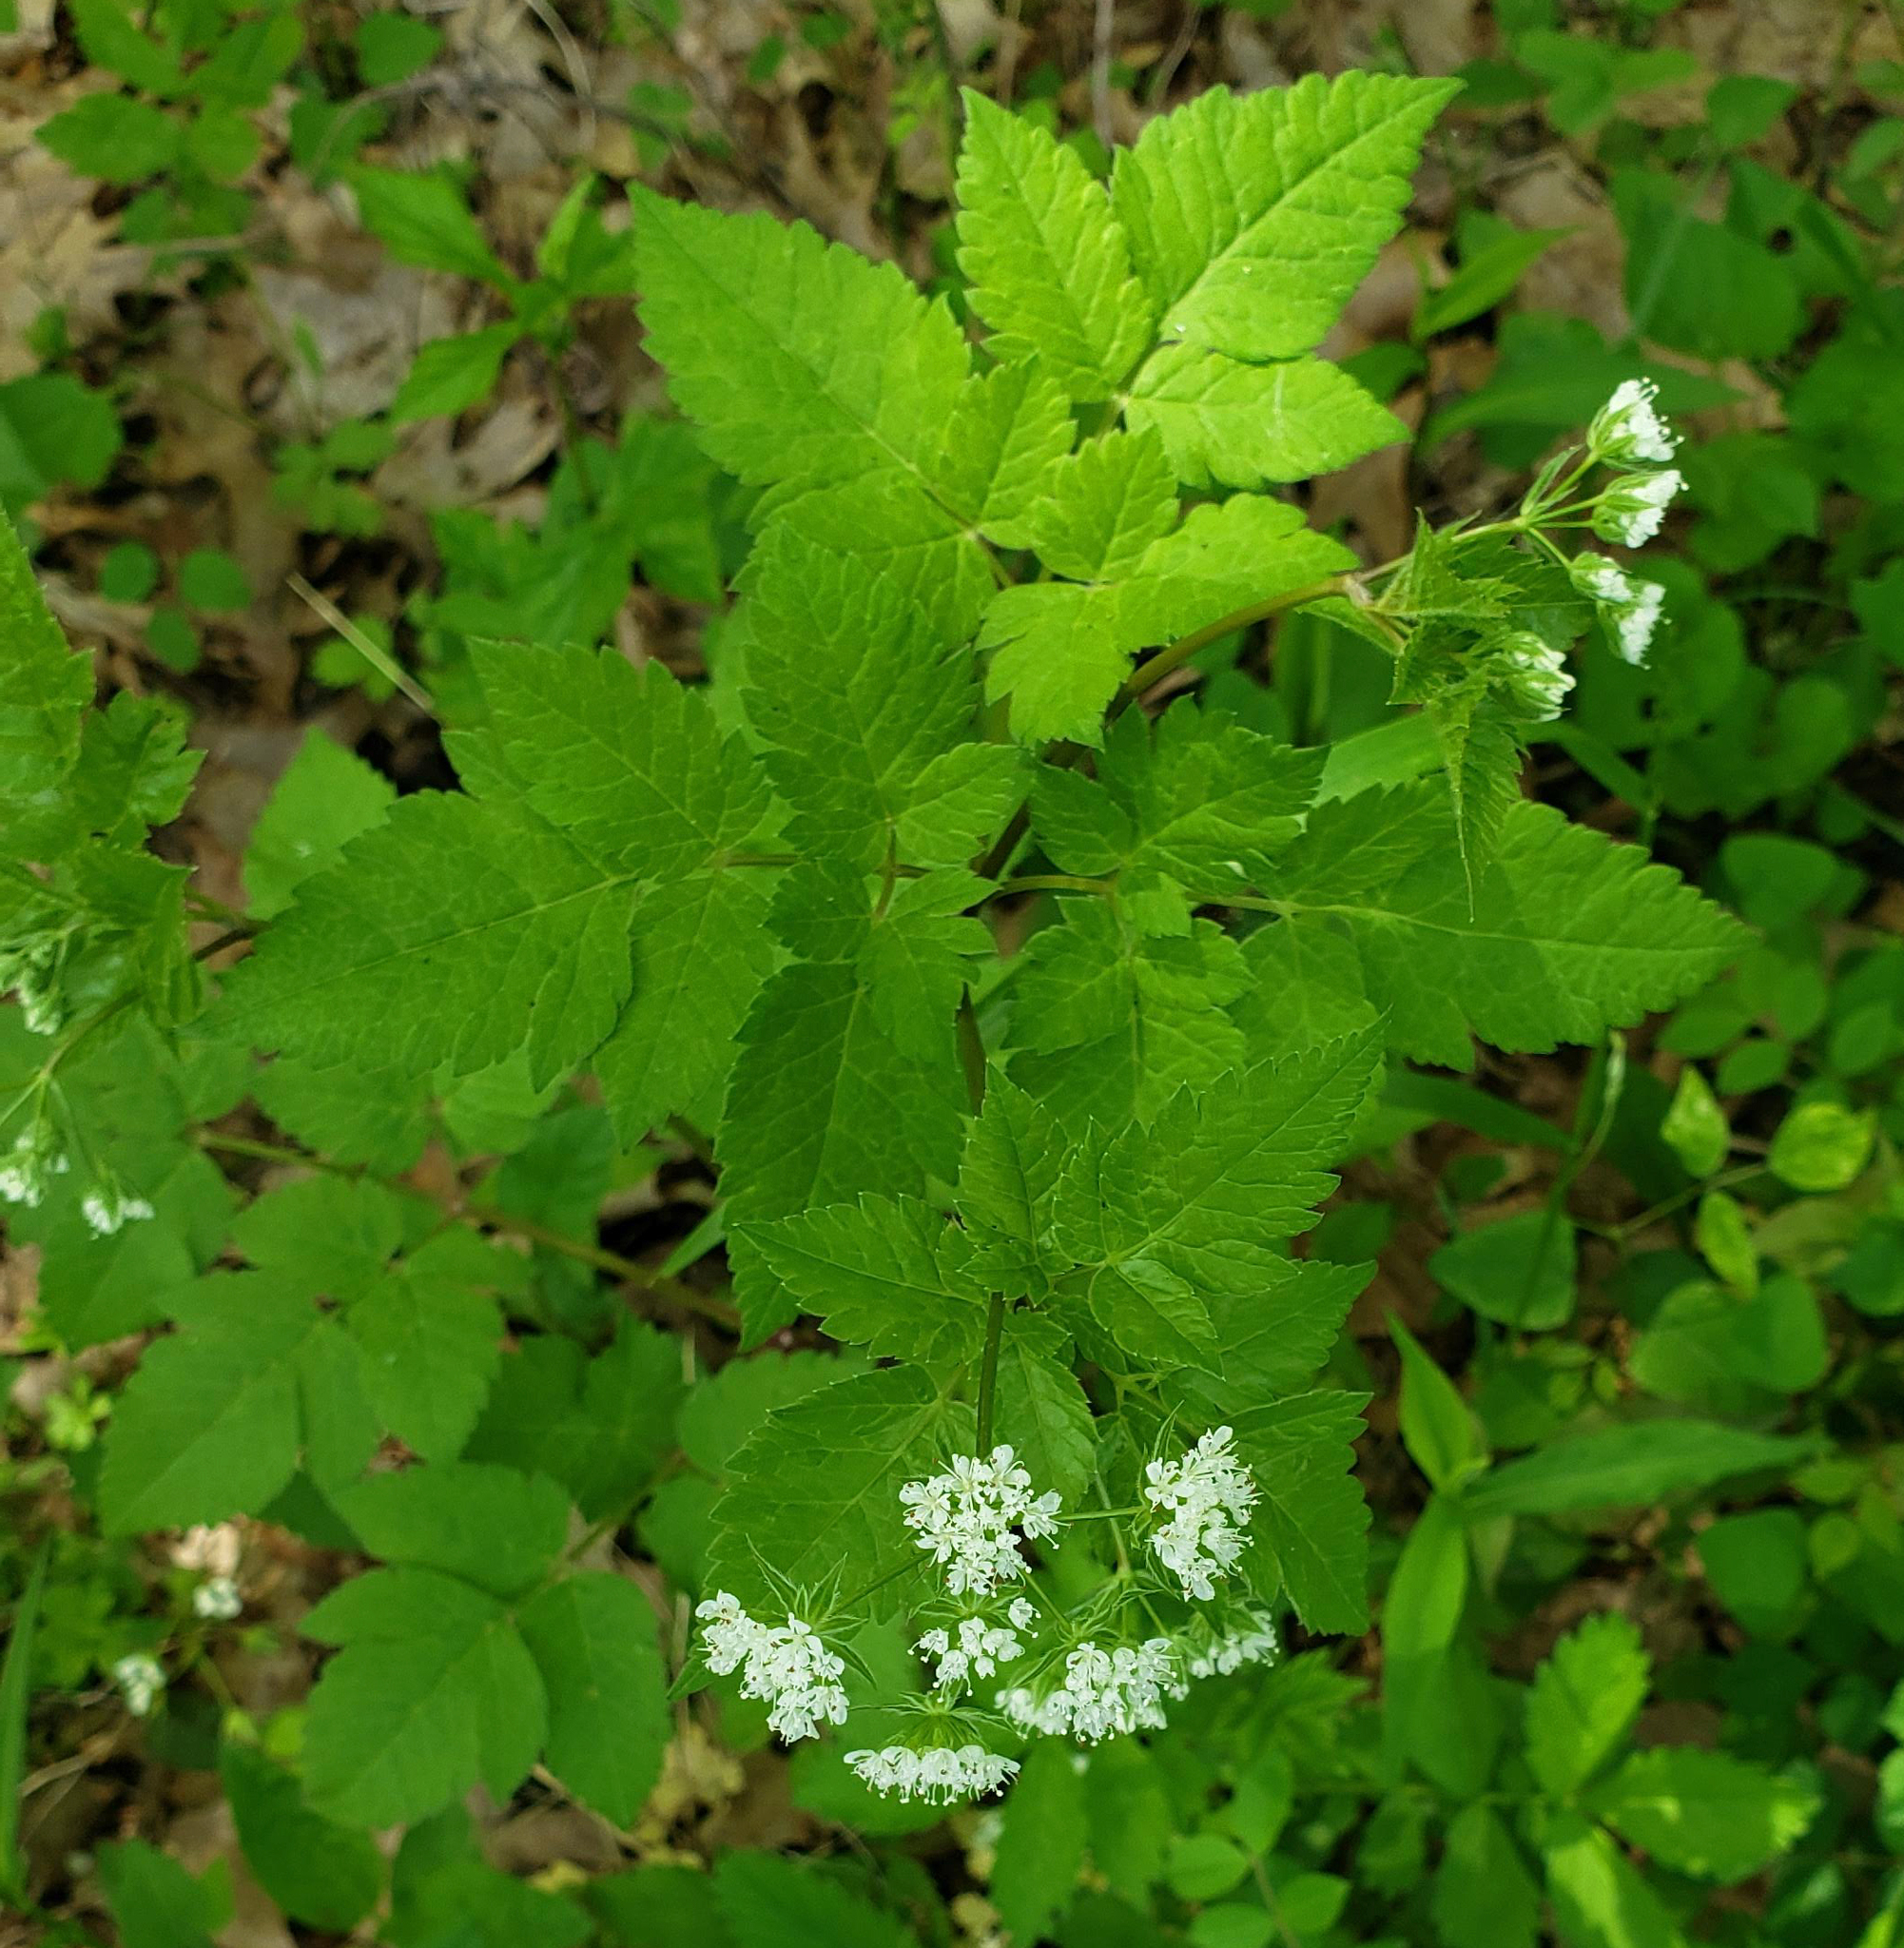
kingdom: Plantae
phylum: Tracheophyta
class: Magnoliopsida
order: Apiales
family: Apiaceae
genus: Osmorhiza
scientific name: Osmorhiza longistylis
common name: Smooth sweet cicely
